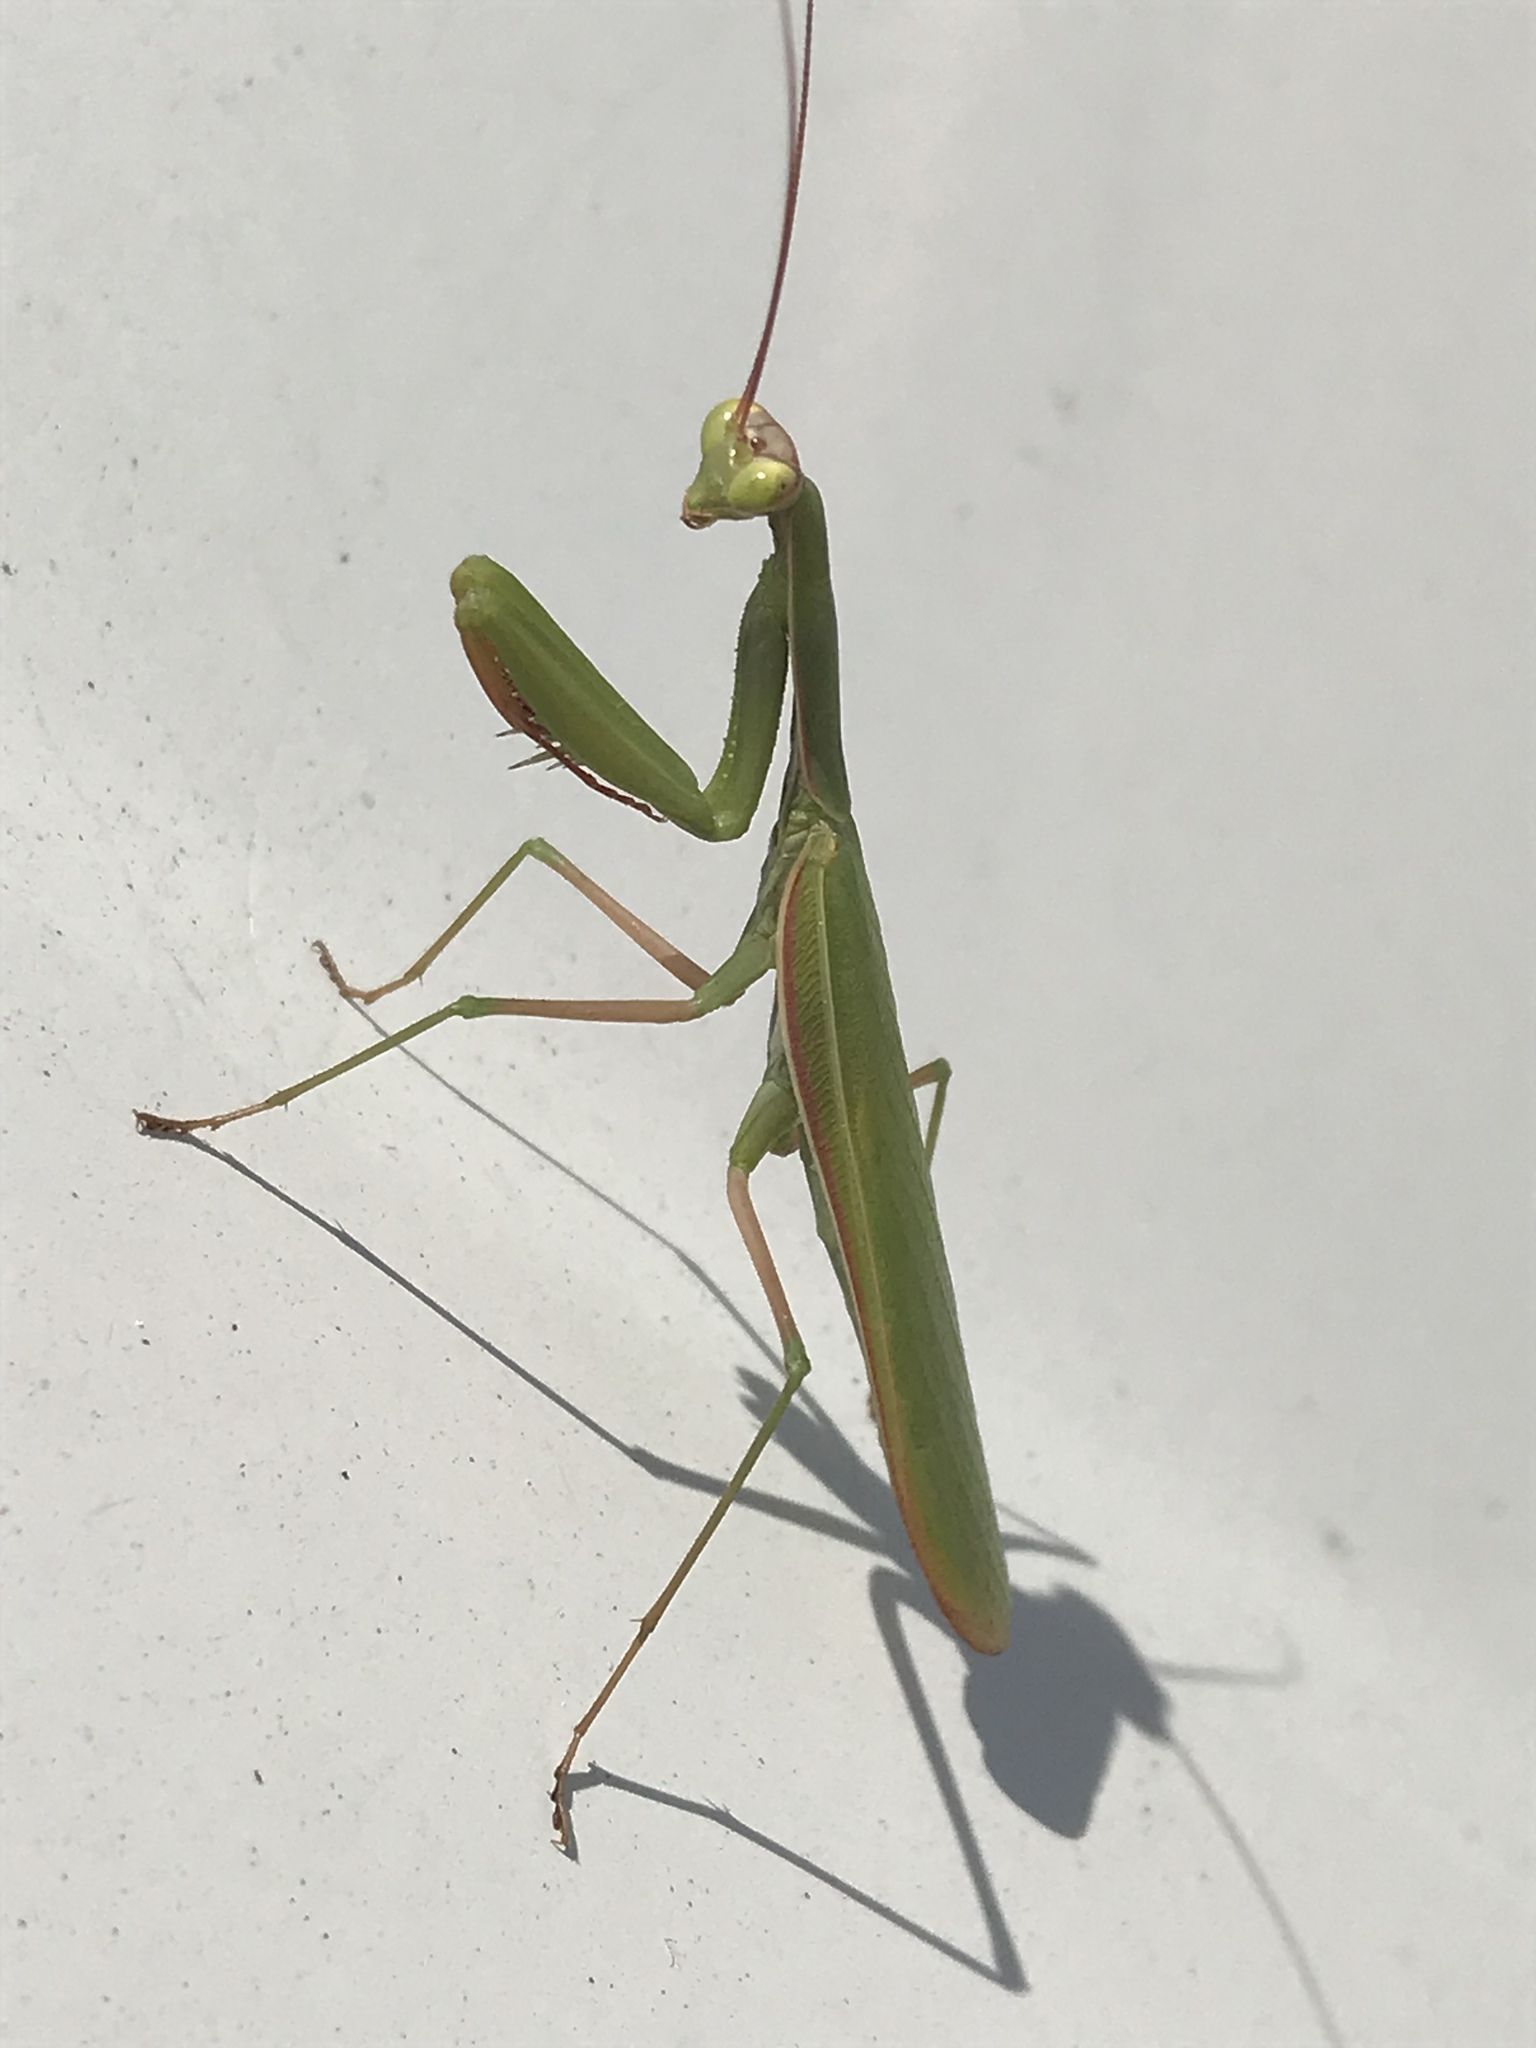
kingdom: Animalia
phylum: Arthropoda
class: Insecta
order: Mantodea
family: Mantidae
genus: Mantis
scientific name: Mantis religiosa
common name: Praying mantis
